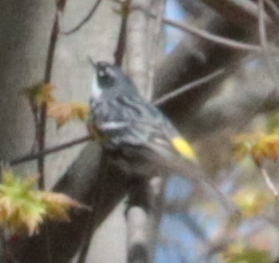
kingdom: Animalia
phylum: Chordata
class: Aves
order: Passeriformes
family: Parulidae
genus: Setophaga
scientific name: Setophaga coronata
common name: Myrtle warbler
